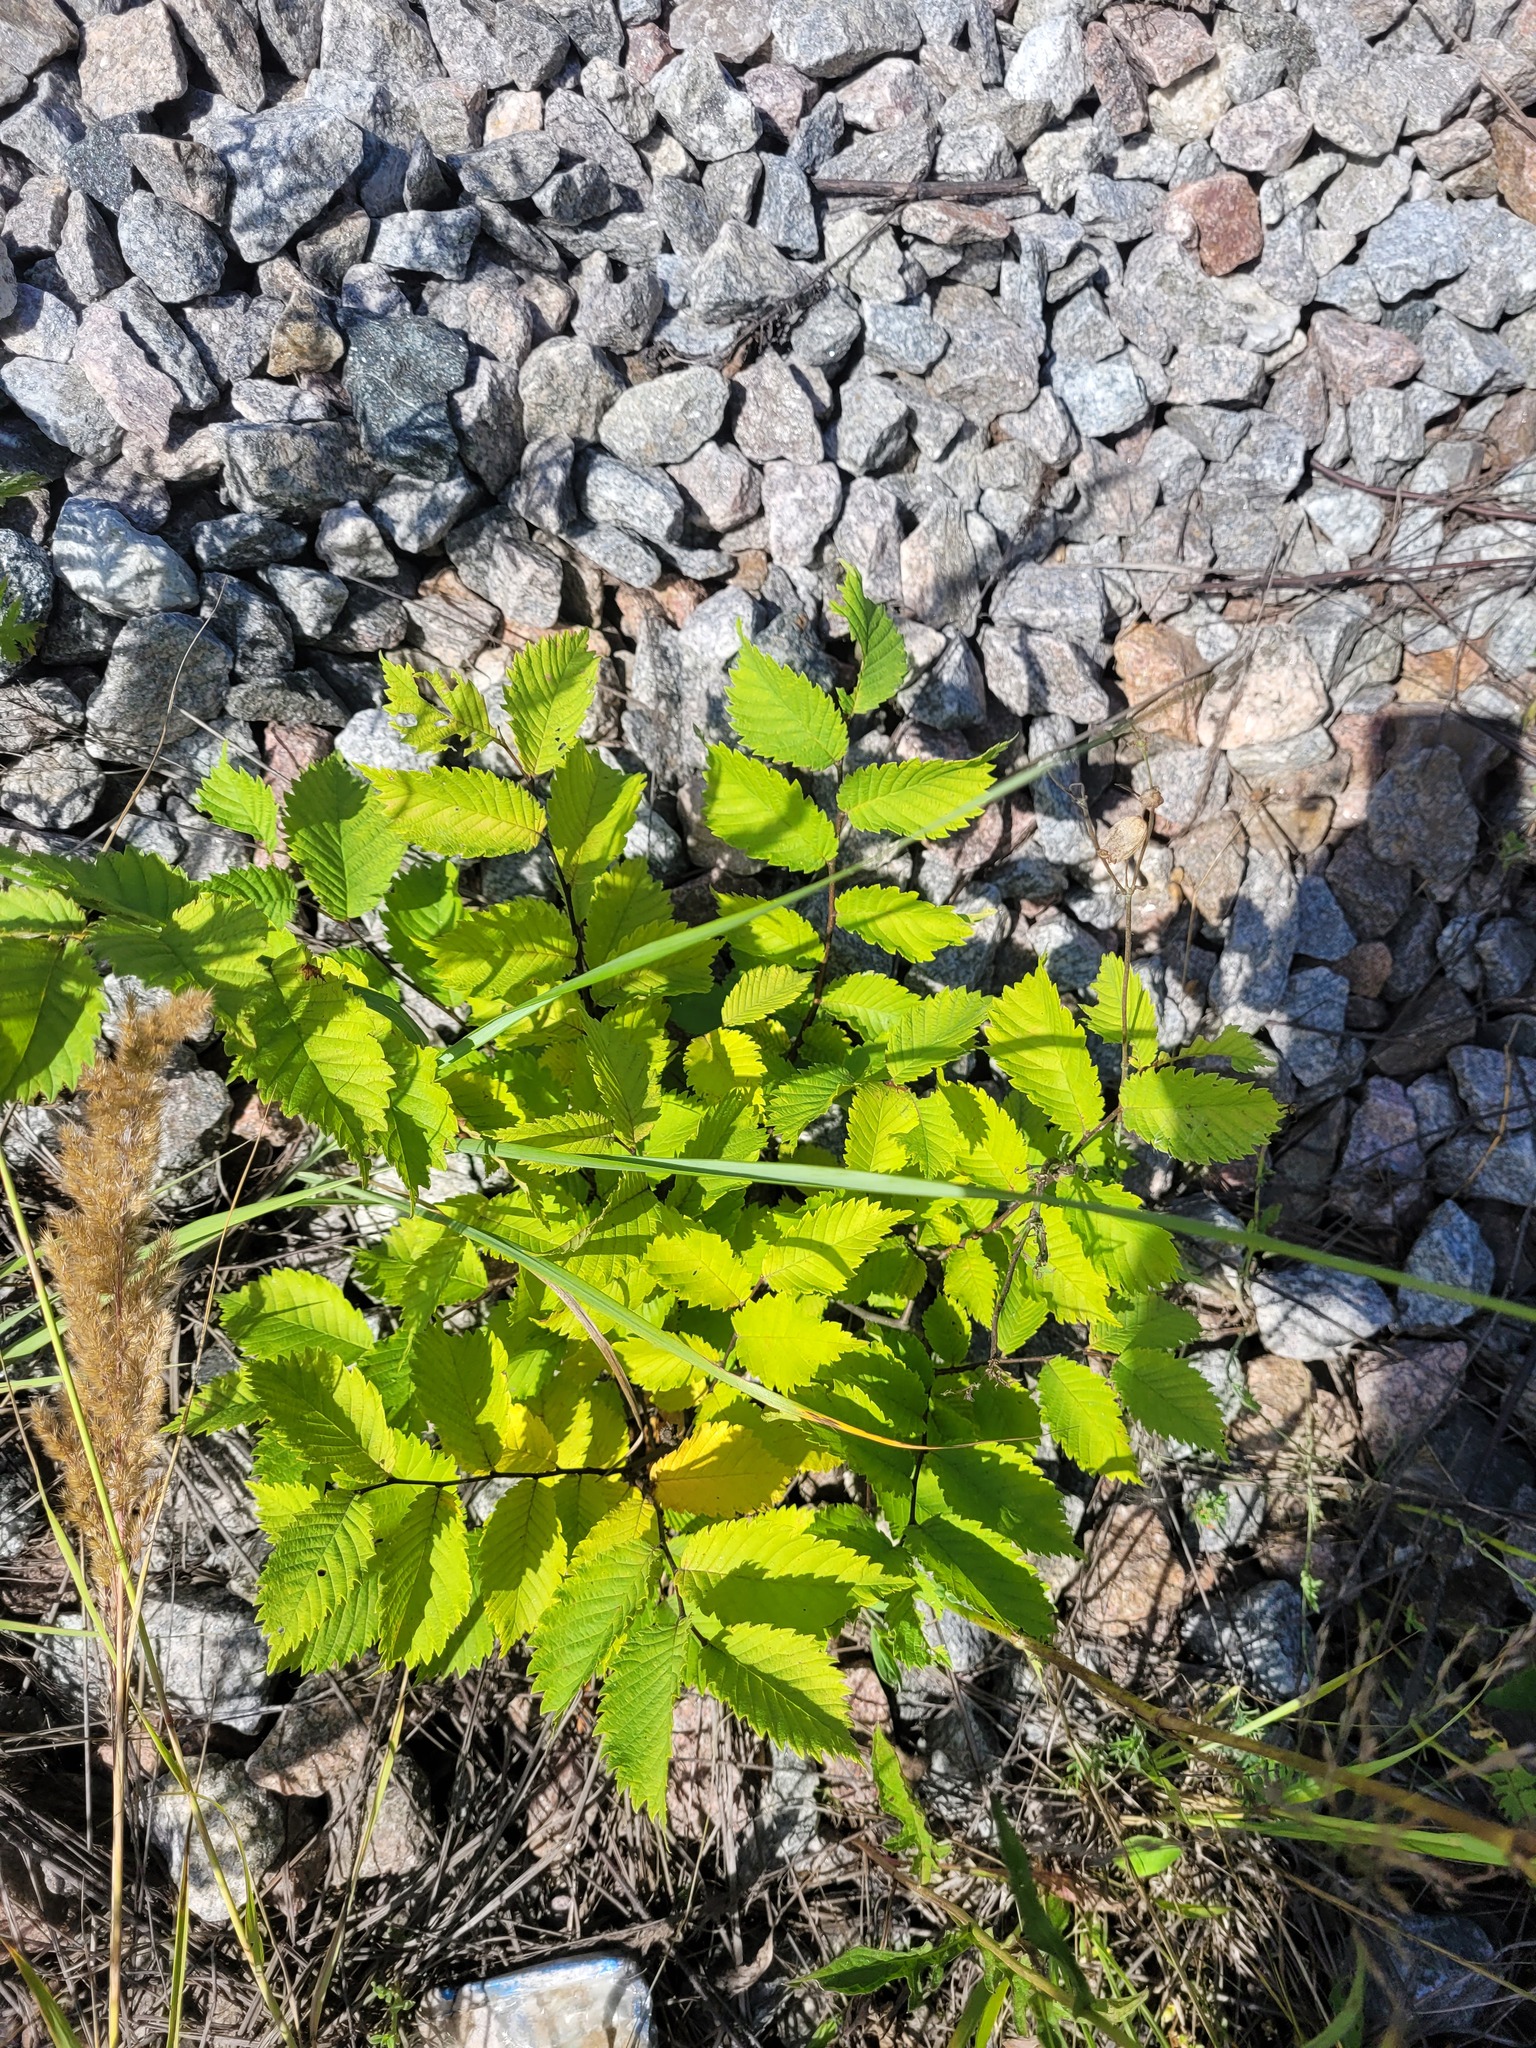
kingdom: Plantae
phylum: Tracheophyta
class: Magnoliopsida
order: Rosales
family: Ulmaceae
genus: Ulmus
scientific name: Ulmus laevis
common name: European white-elm
